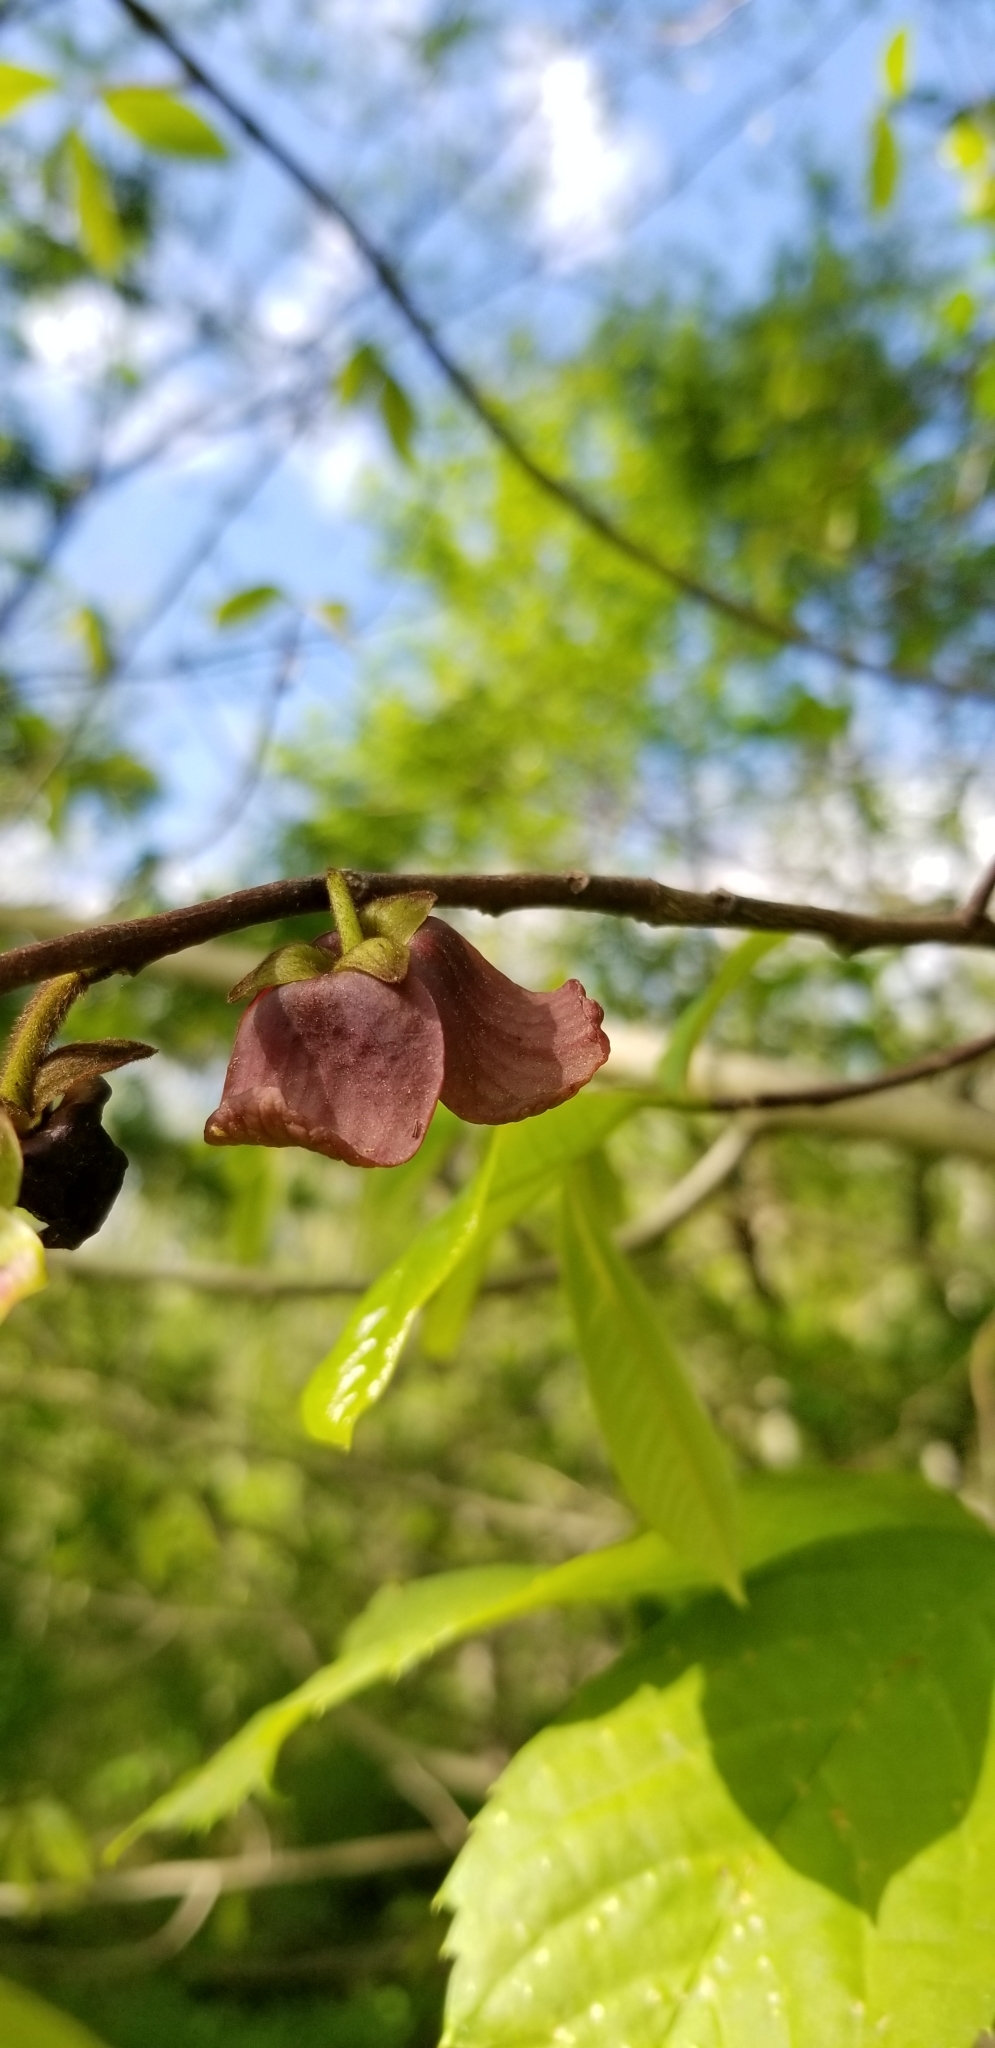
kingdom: Plantae
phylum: Tracheophyta
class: Magnoliopsida
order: Magnoliales
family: Annonaceae
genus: Asimina
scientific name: Asimina triloba
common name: Dog-banana
